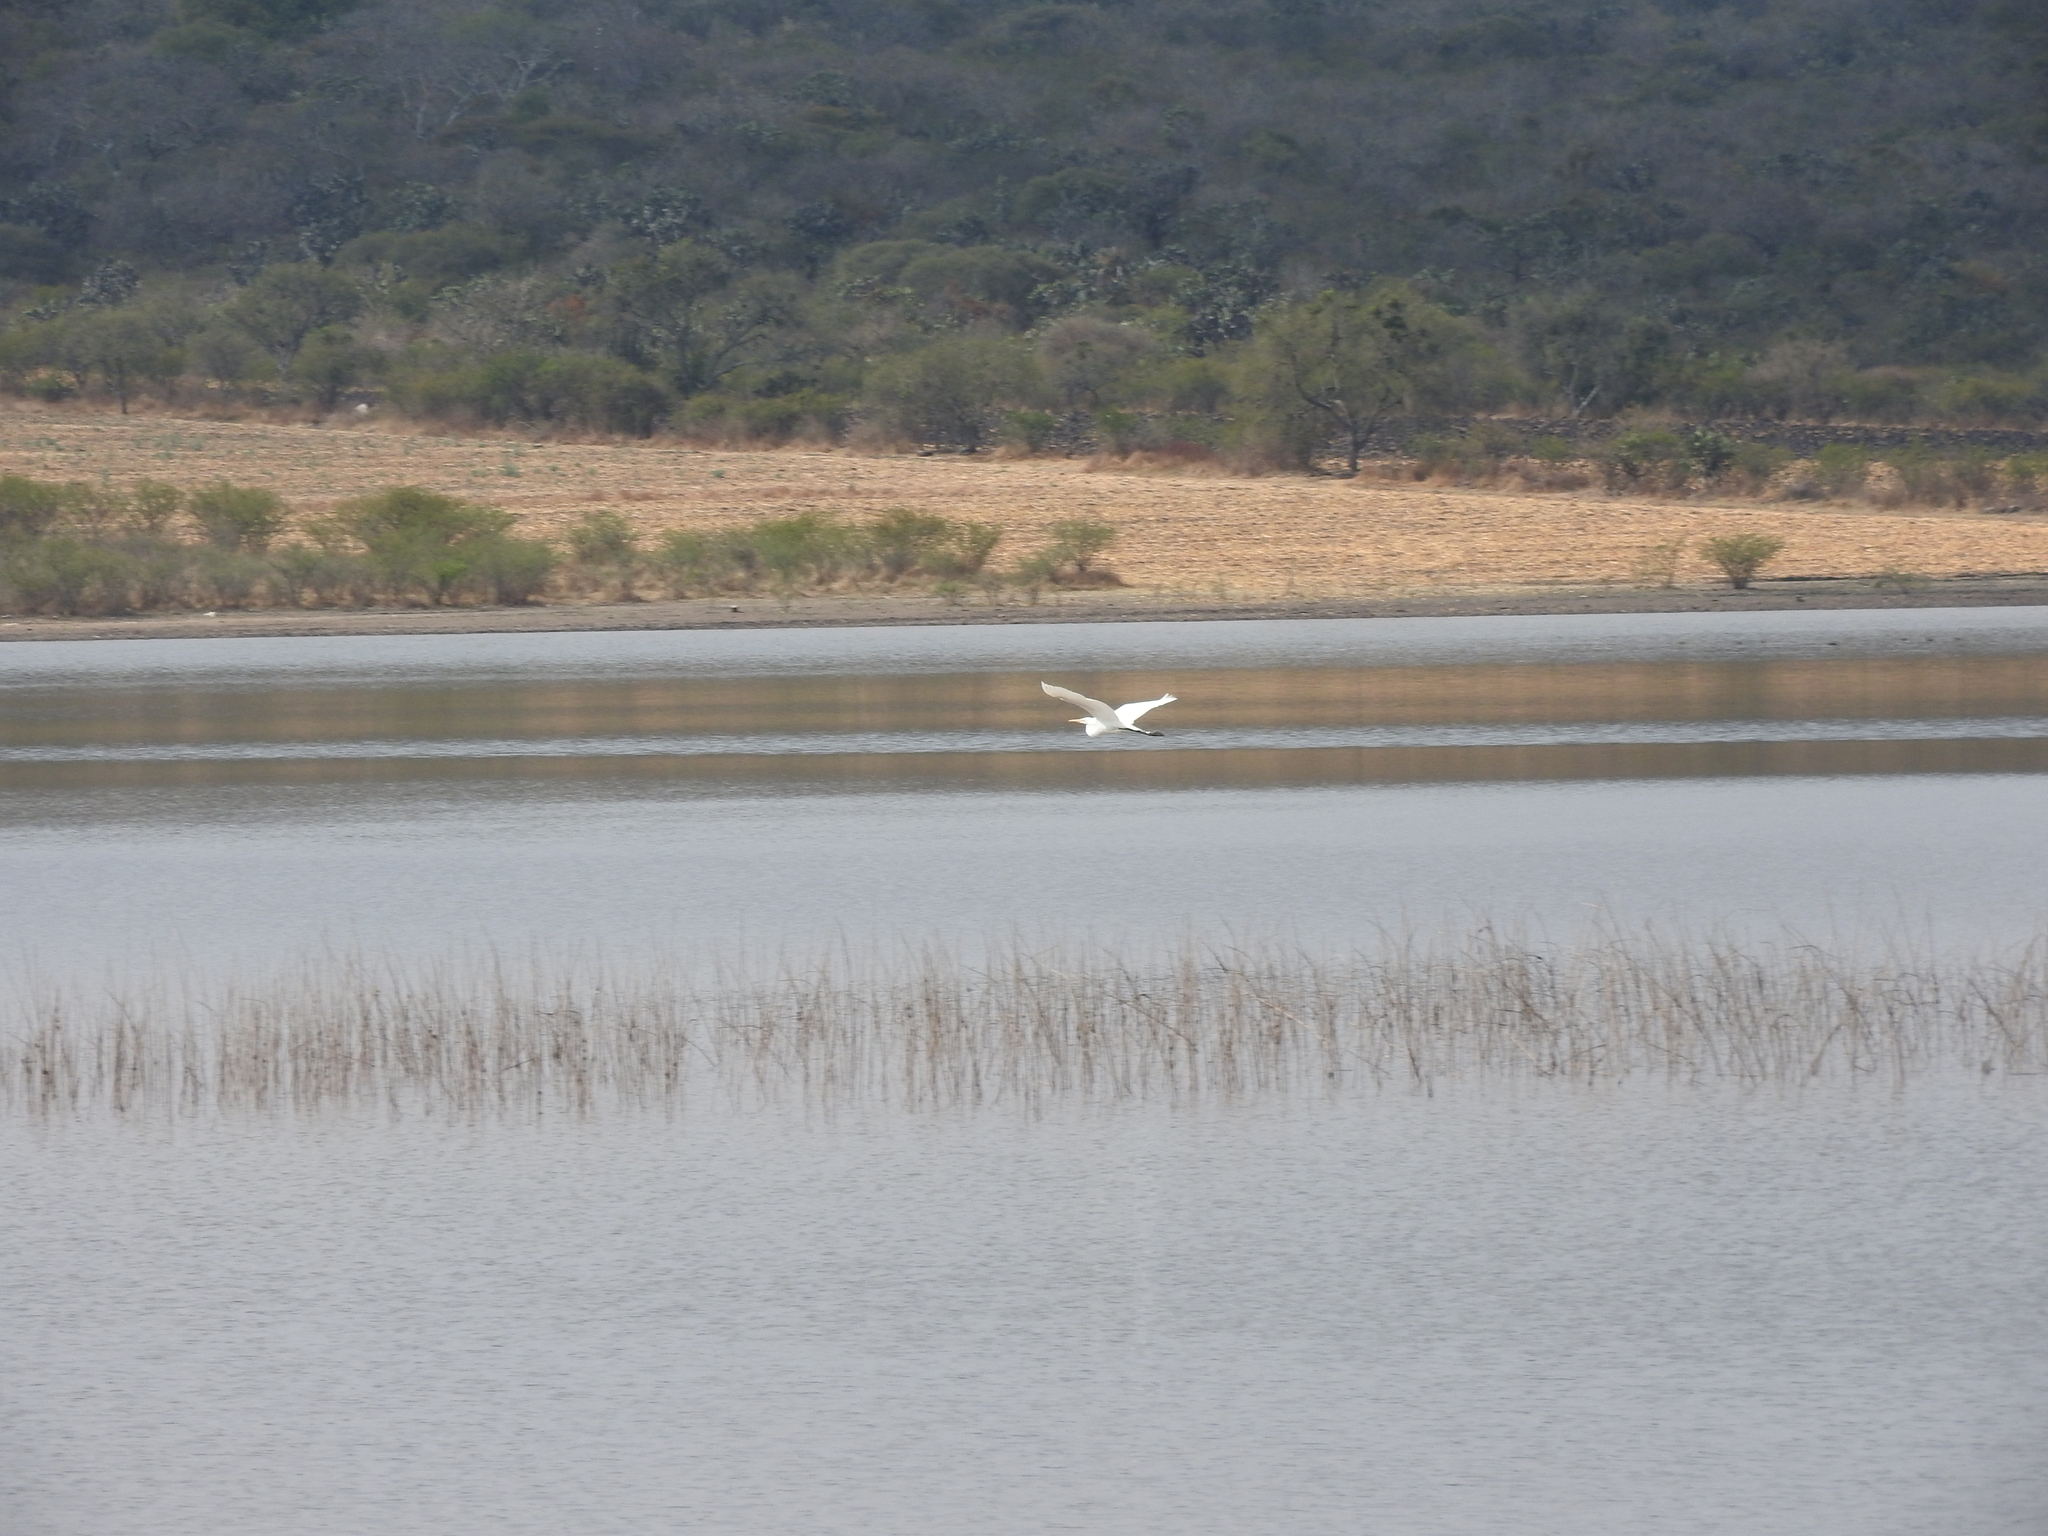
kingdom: Animalia
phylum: Chordata
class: Aves
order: Pelecaniformes
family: Ardeidae
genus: Ardea
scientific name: Ardea alba
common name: Great egret
